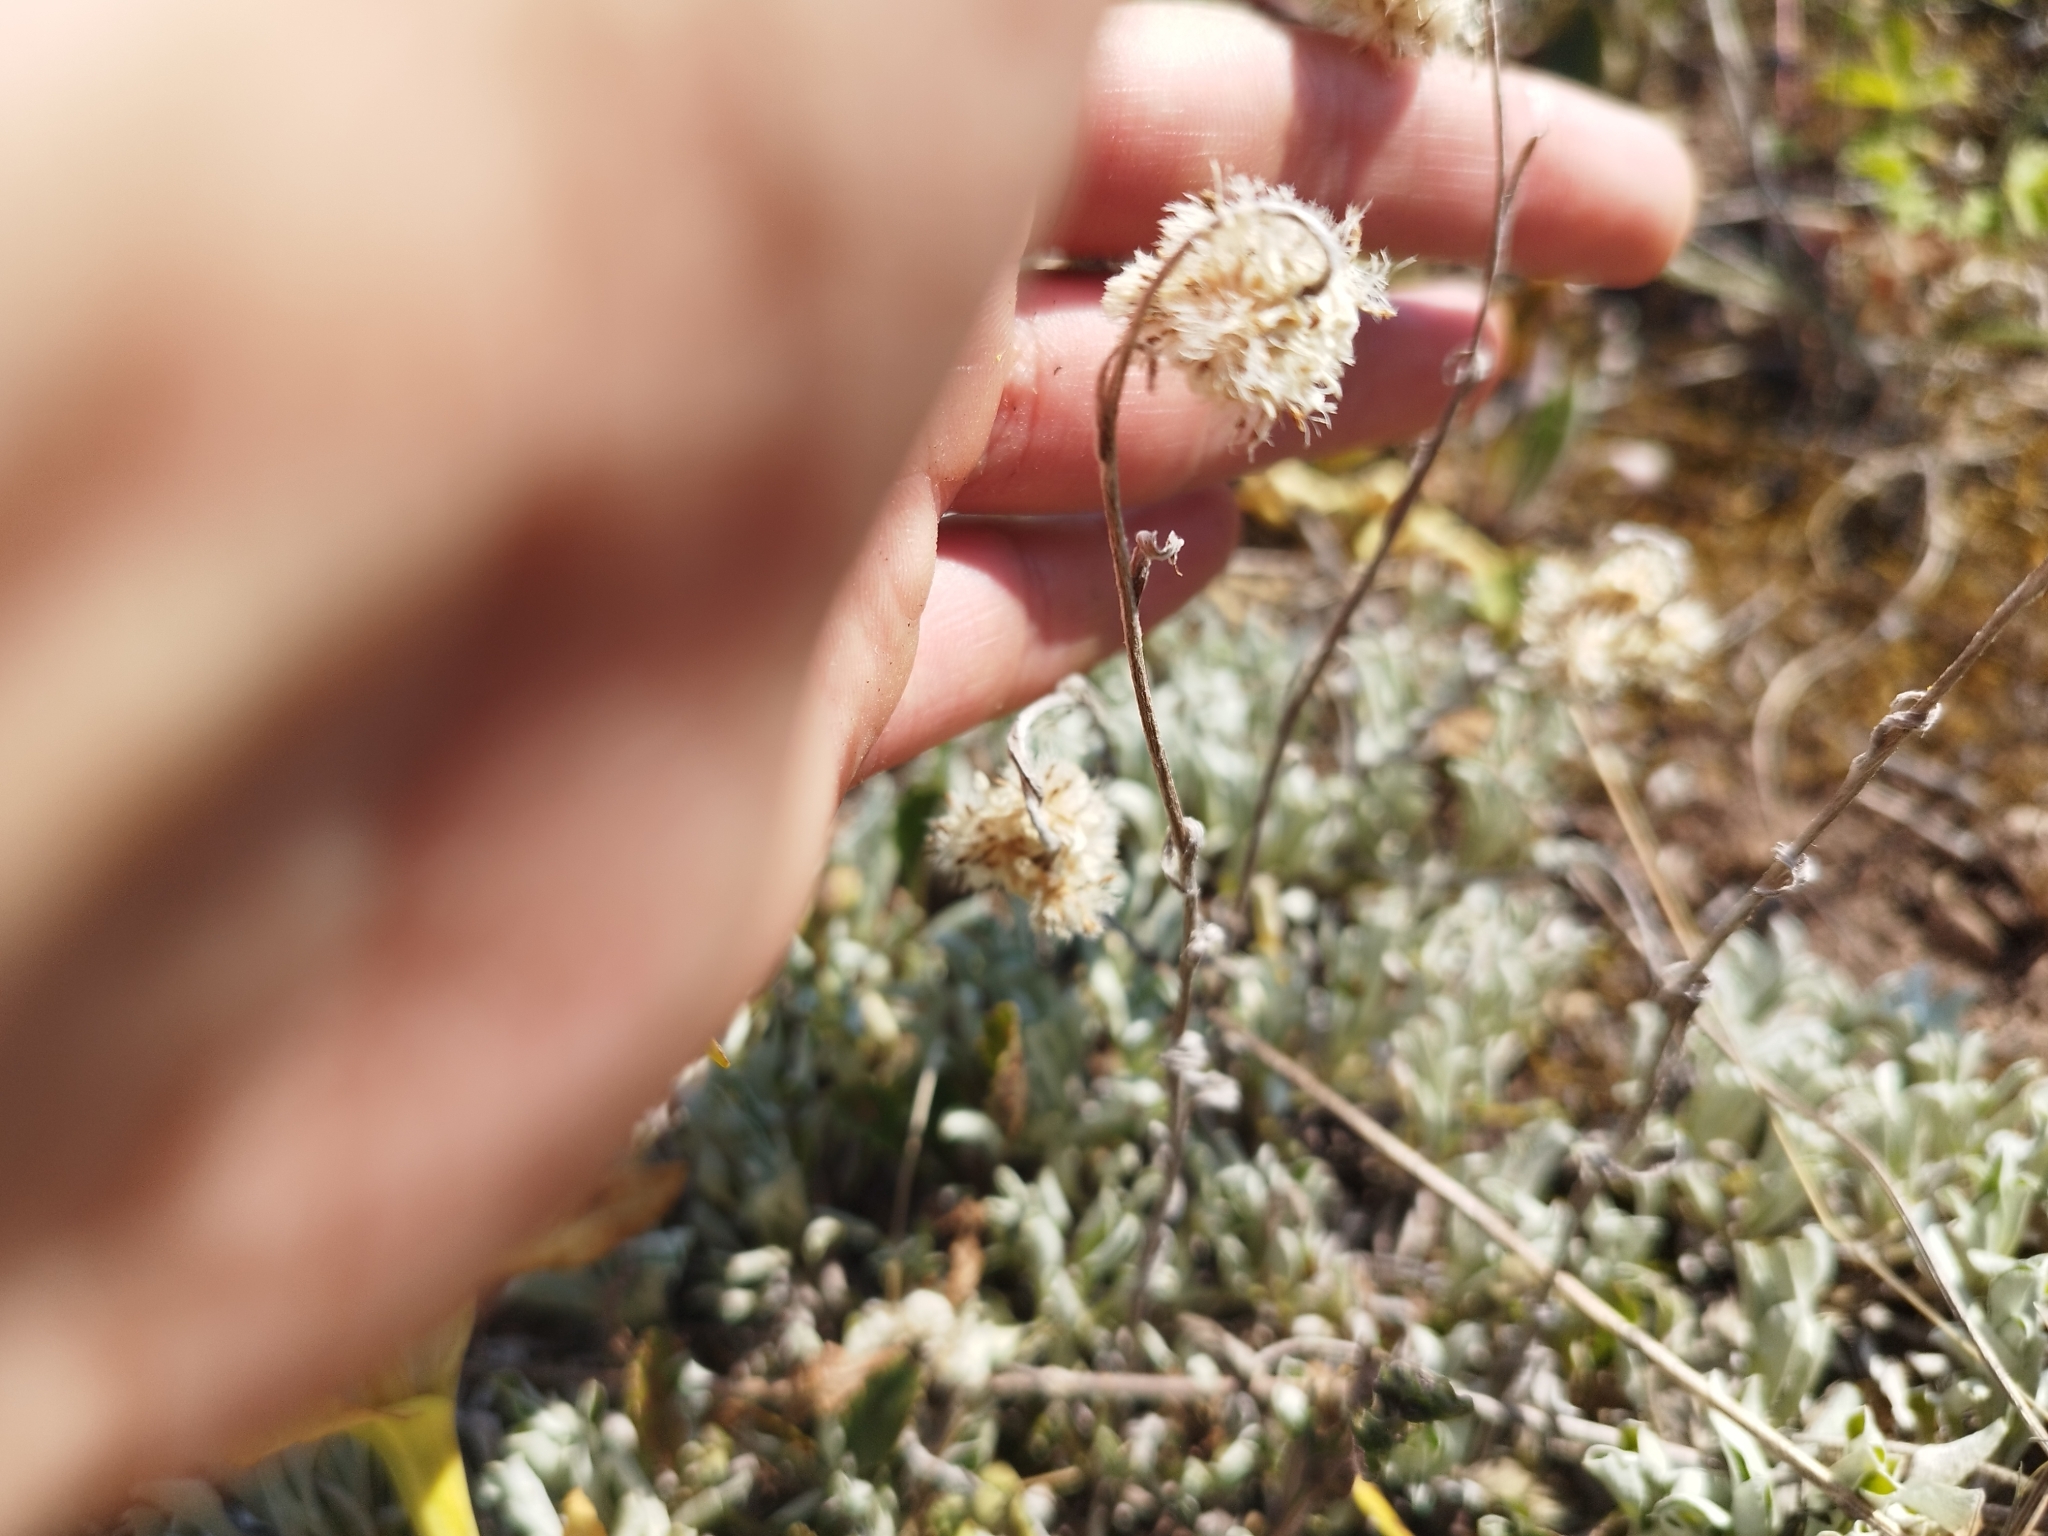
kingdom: Plantae
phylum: Tracheophyta
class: Magnoliopsida
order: Asterales
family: Asteraceae
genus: Antennaria
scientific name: Antennaria dioica
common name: Mountain everlasting
